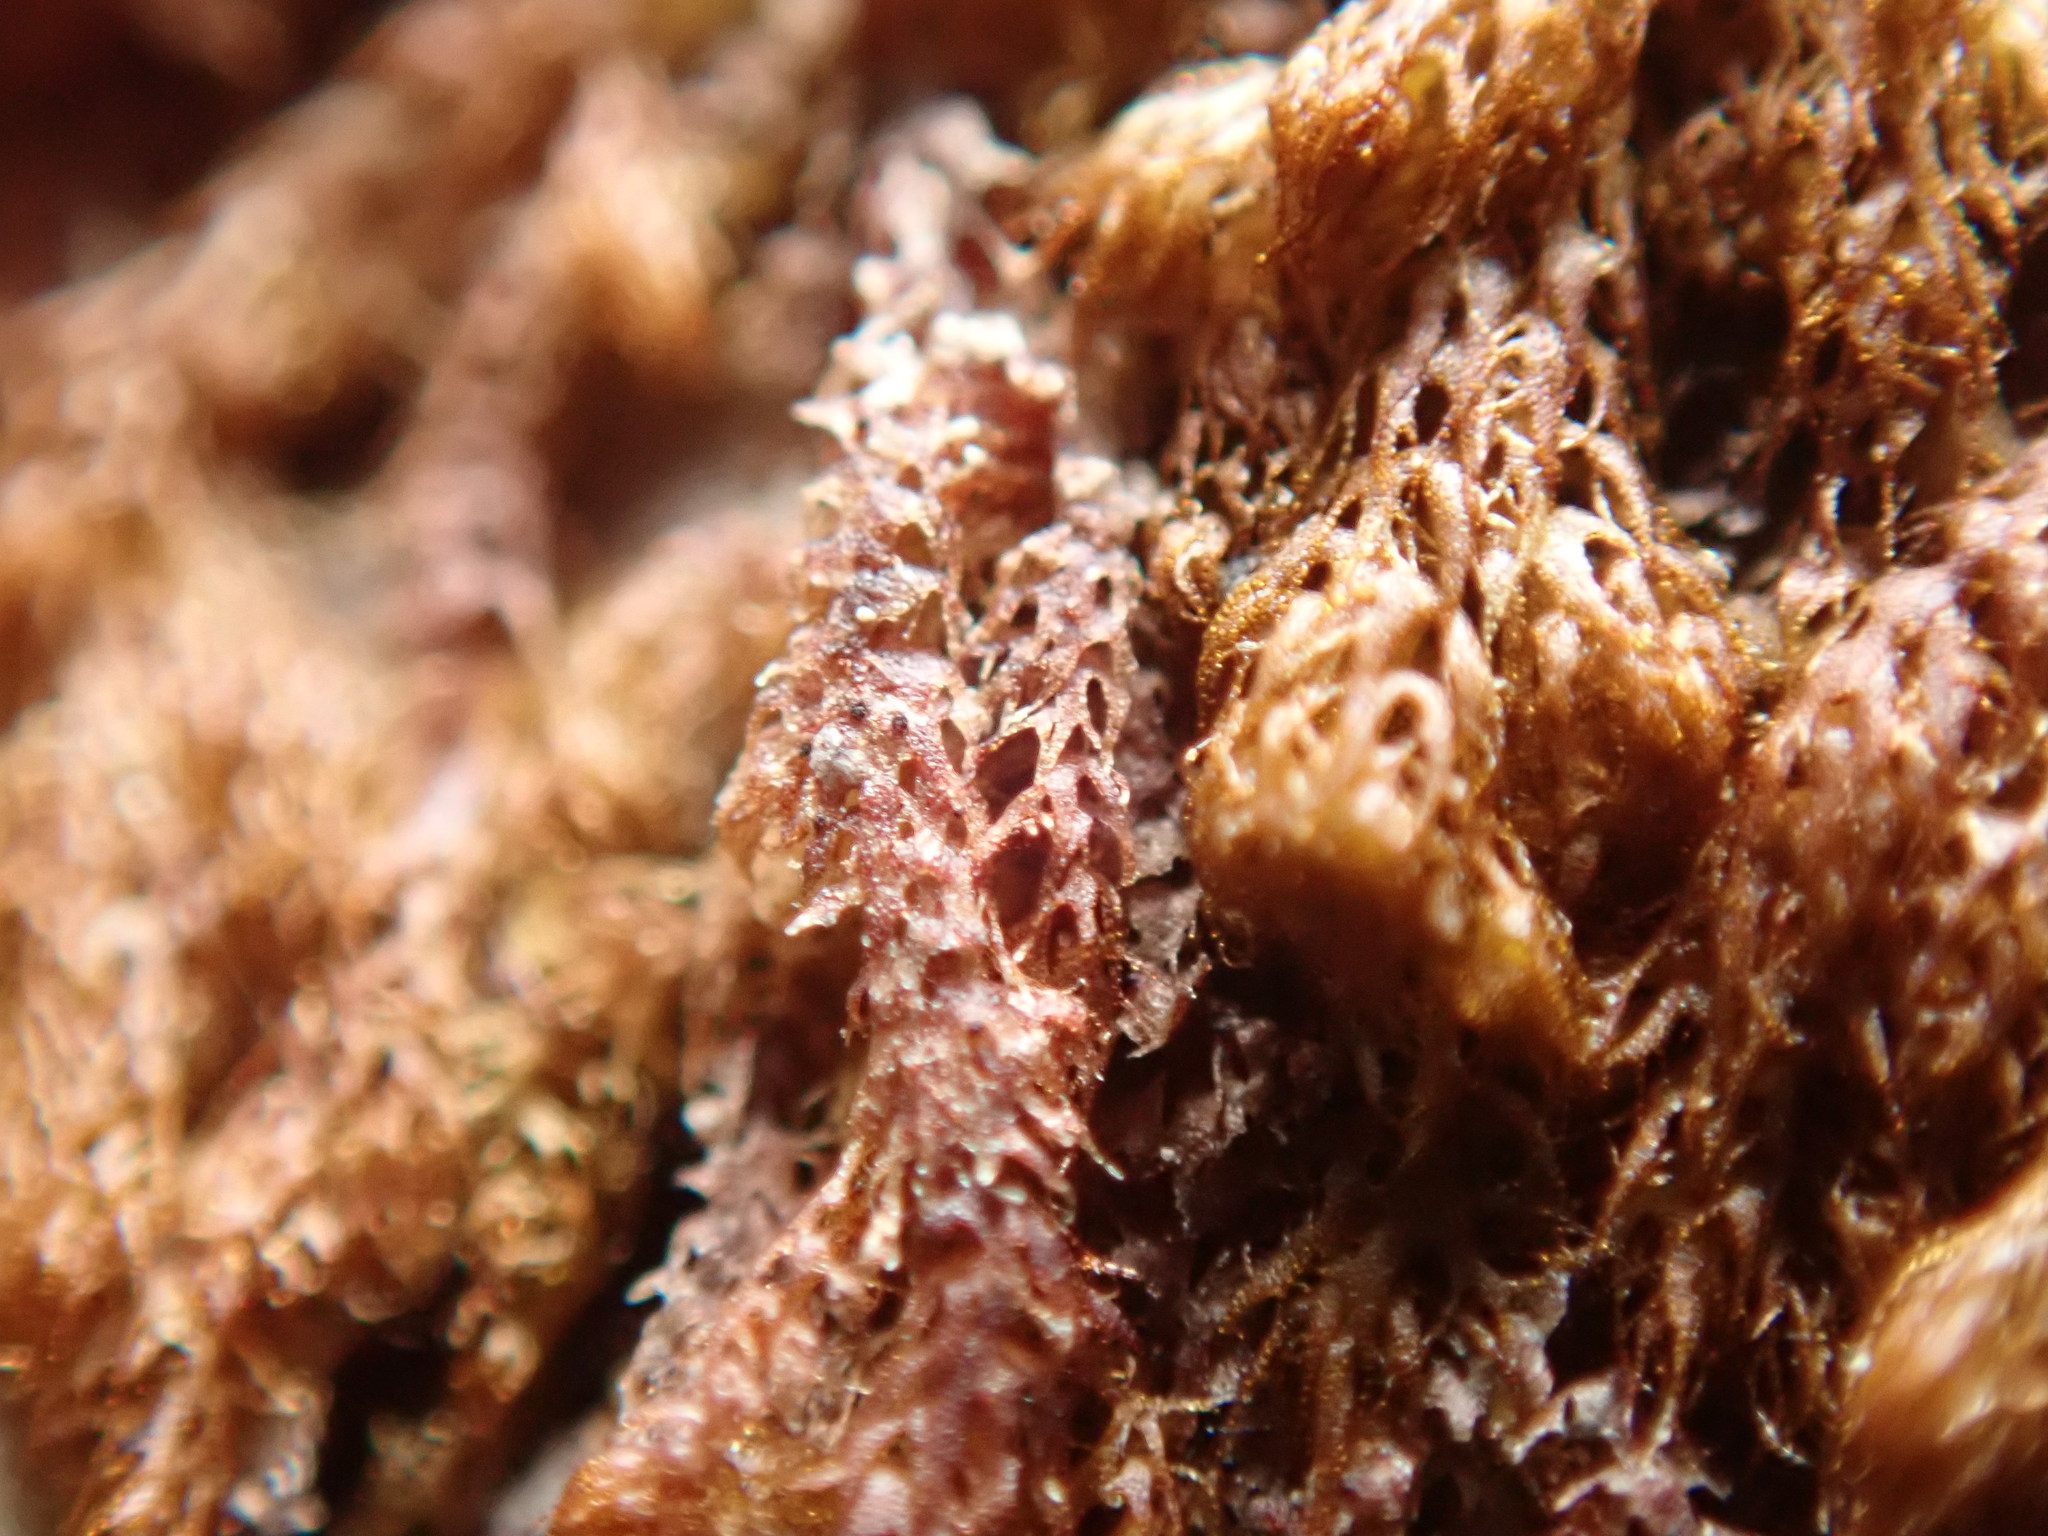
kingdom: Plantae
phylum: Marchantiophyta
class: Jungermanniopsida
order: Ptilidiales
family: Ptilidiaceae
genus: Ptilidium
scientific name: Ptilidium californicum
